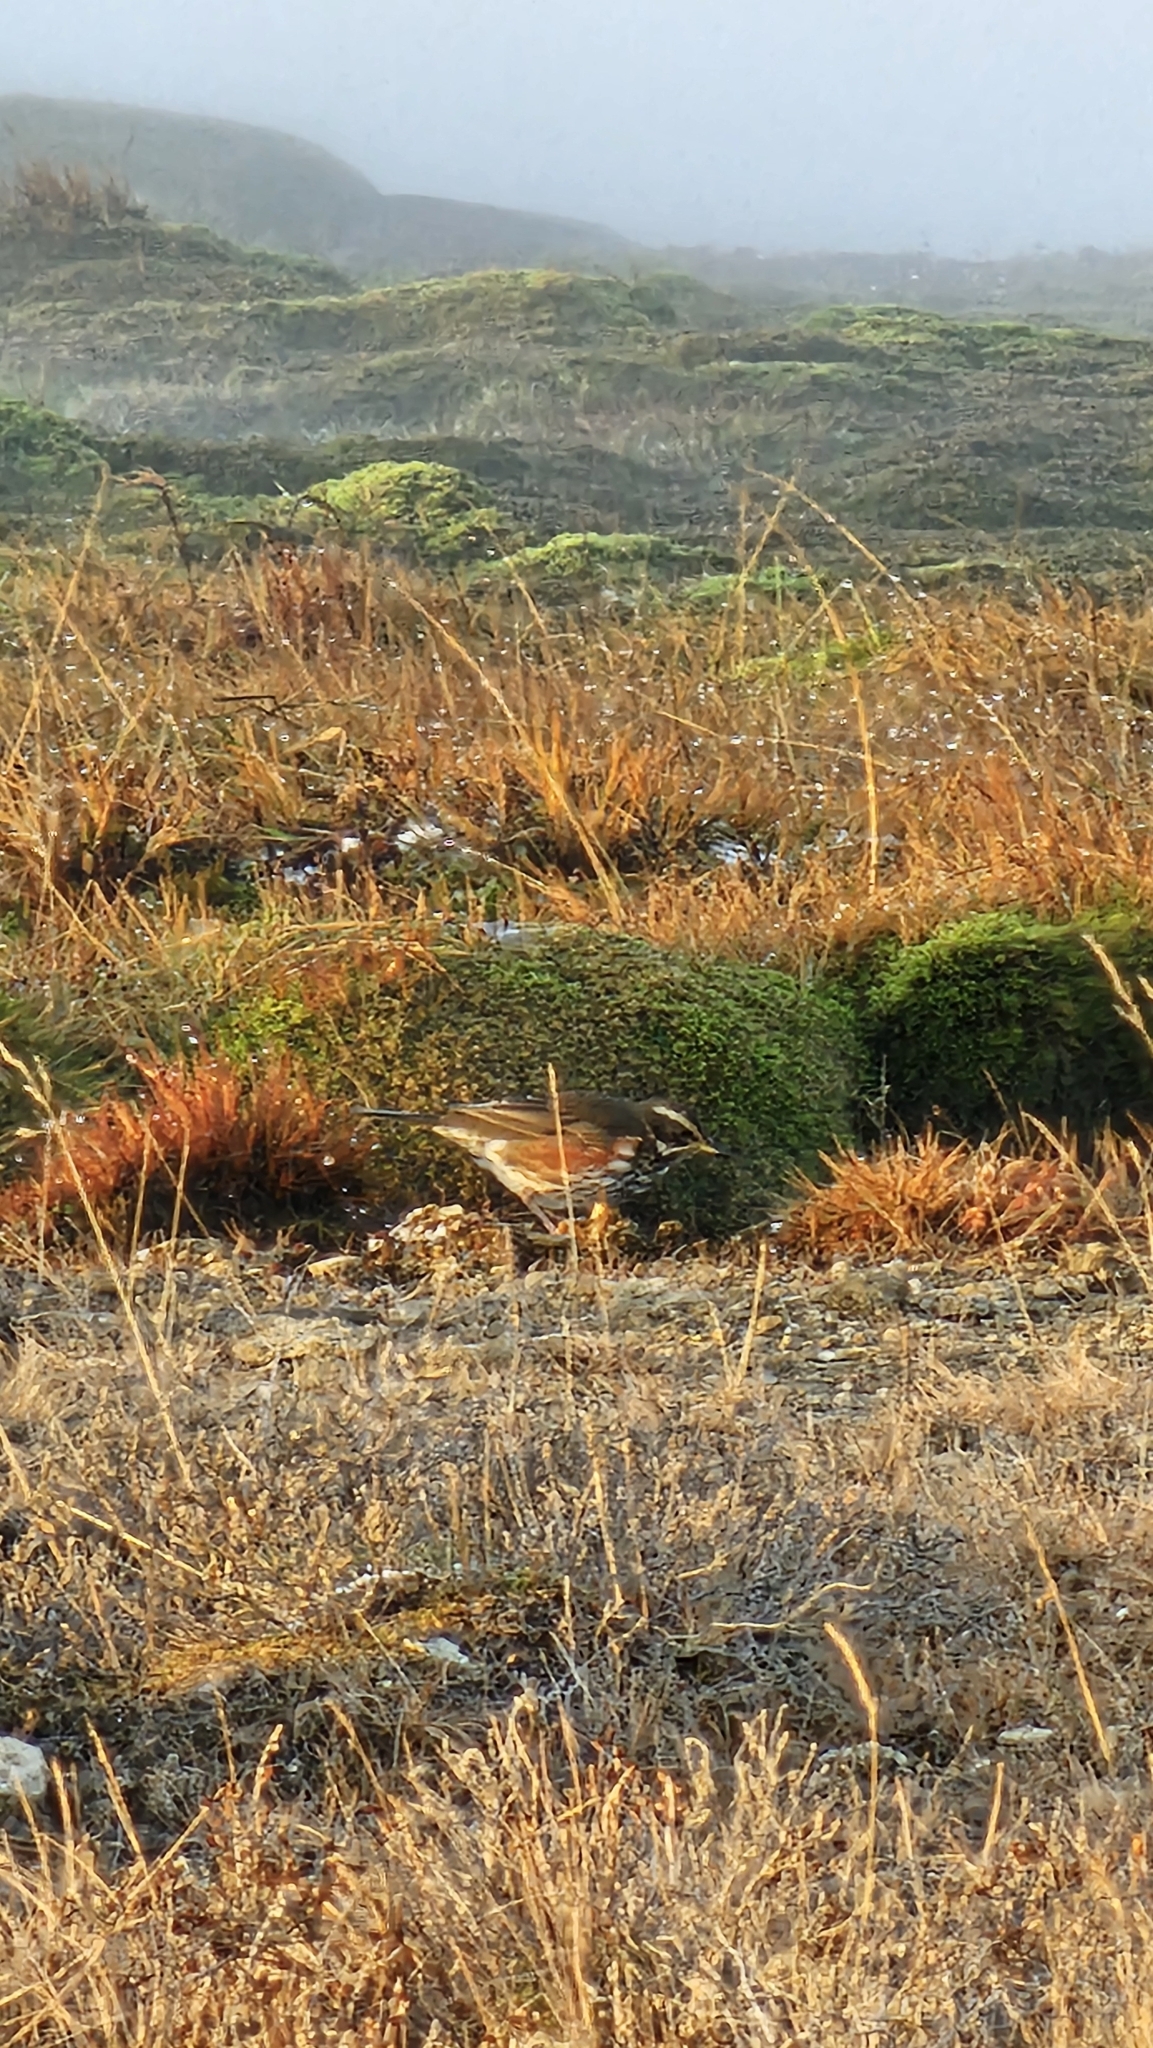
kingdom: Animalia
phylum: Chordata
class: Aves
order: Passeriformes
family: Turdidae
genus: Turdus
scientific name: Turdus iliacus
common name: Redwing
